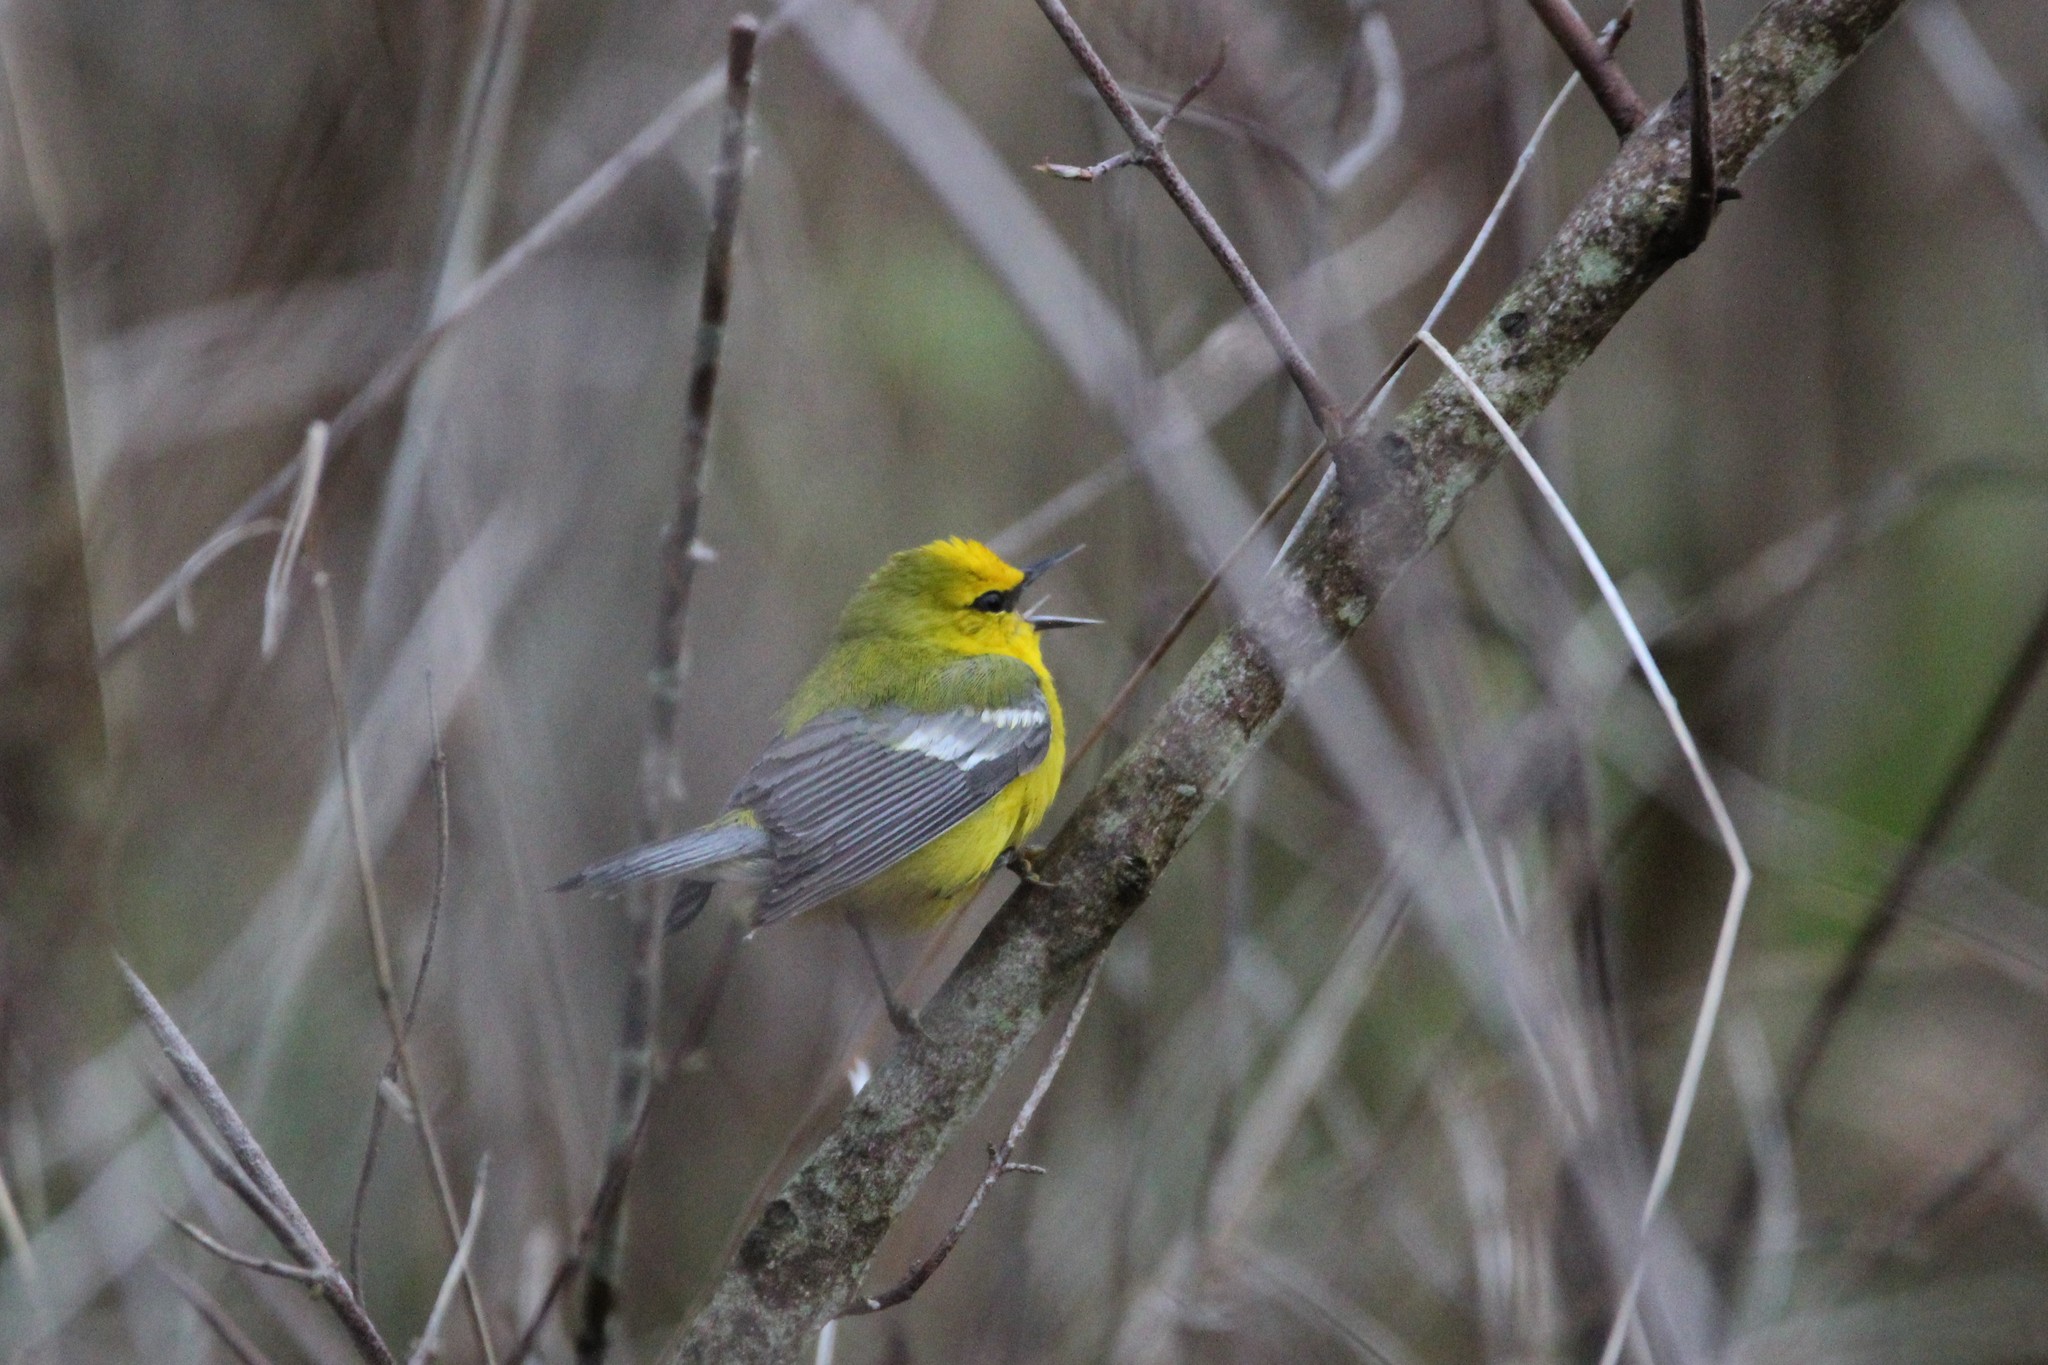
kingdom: Animalia
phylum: Chordata
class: Aves
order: Passeriformes
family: Parulidae
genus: Vermivora
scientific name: Vermivora cyanoptera
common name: Blue-winged warbler
